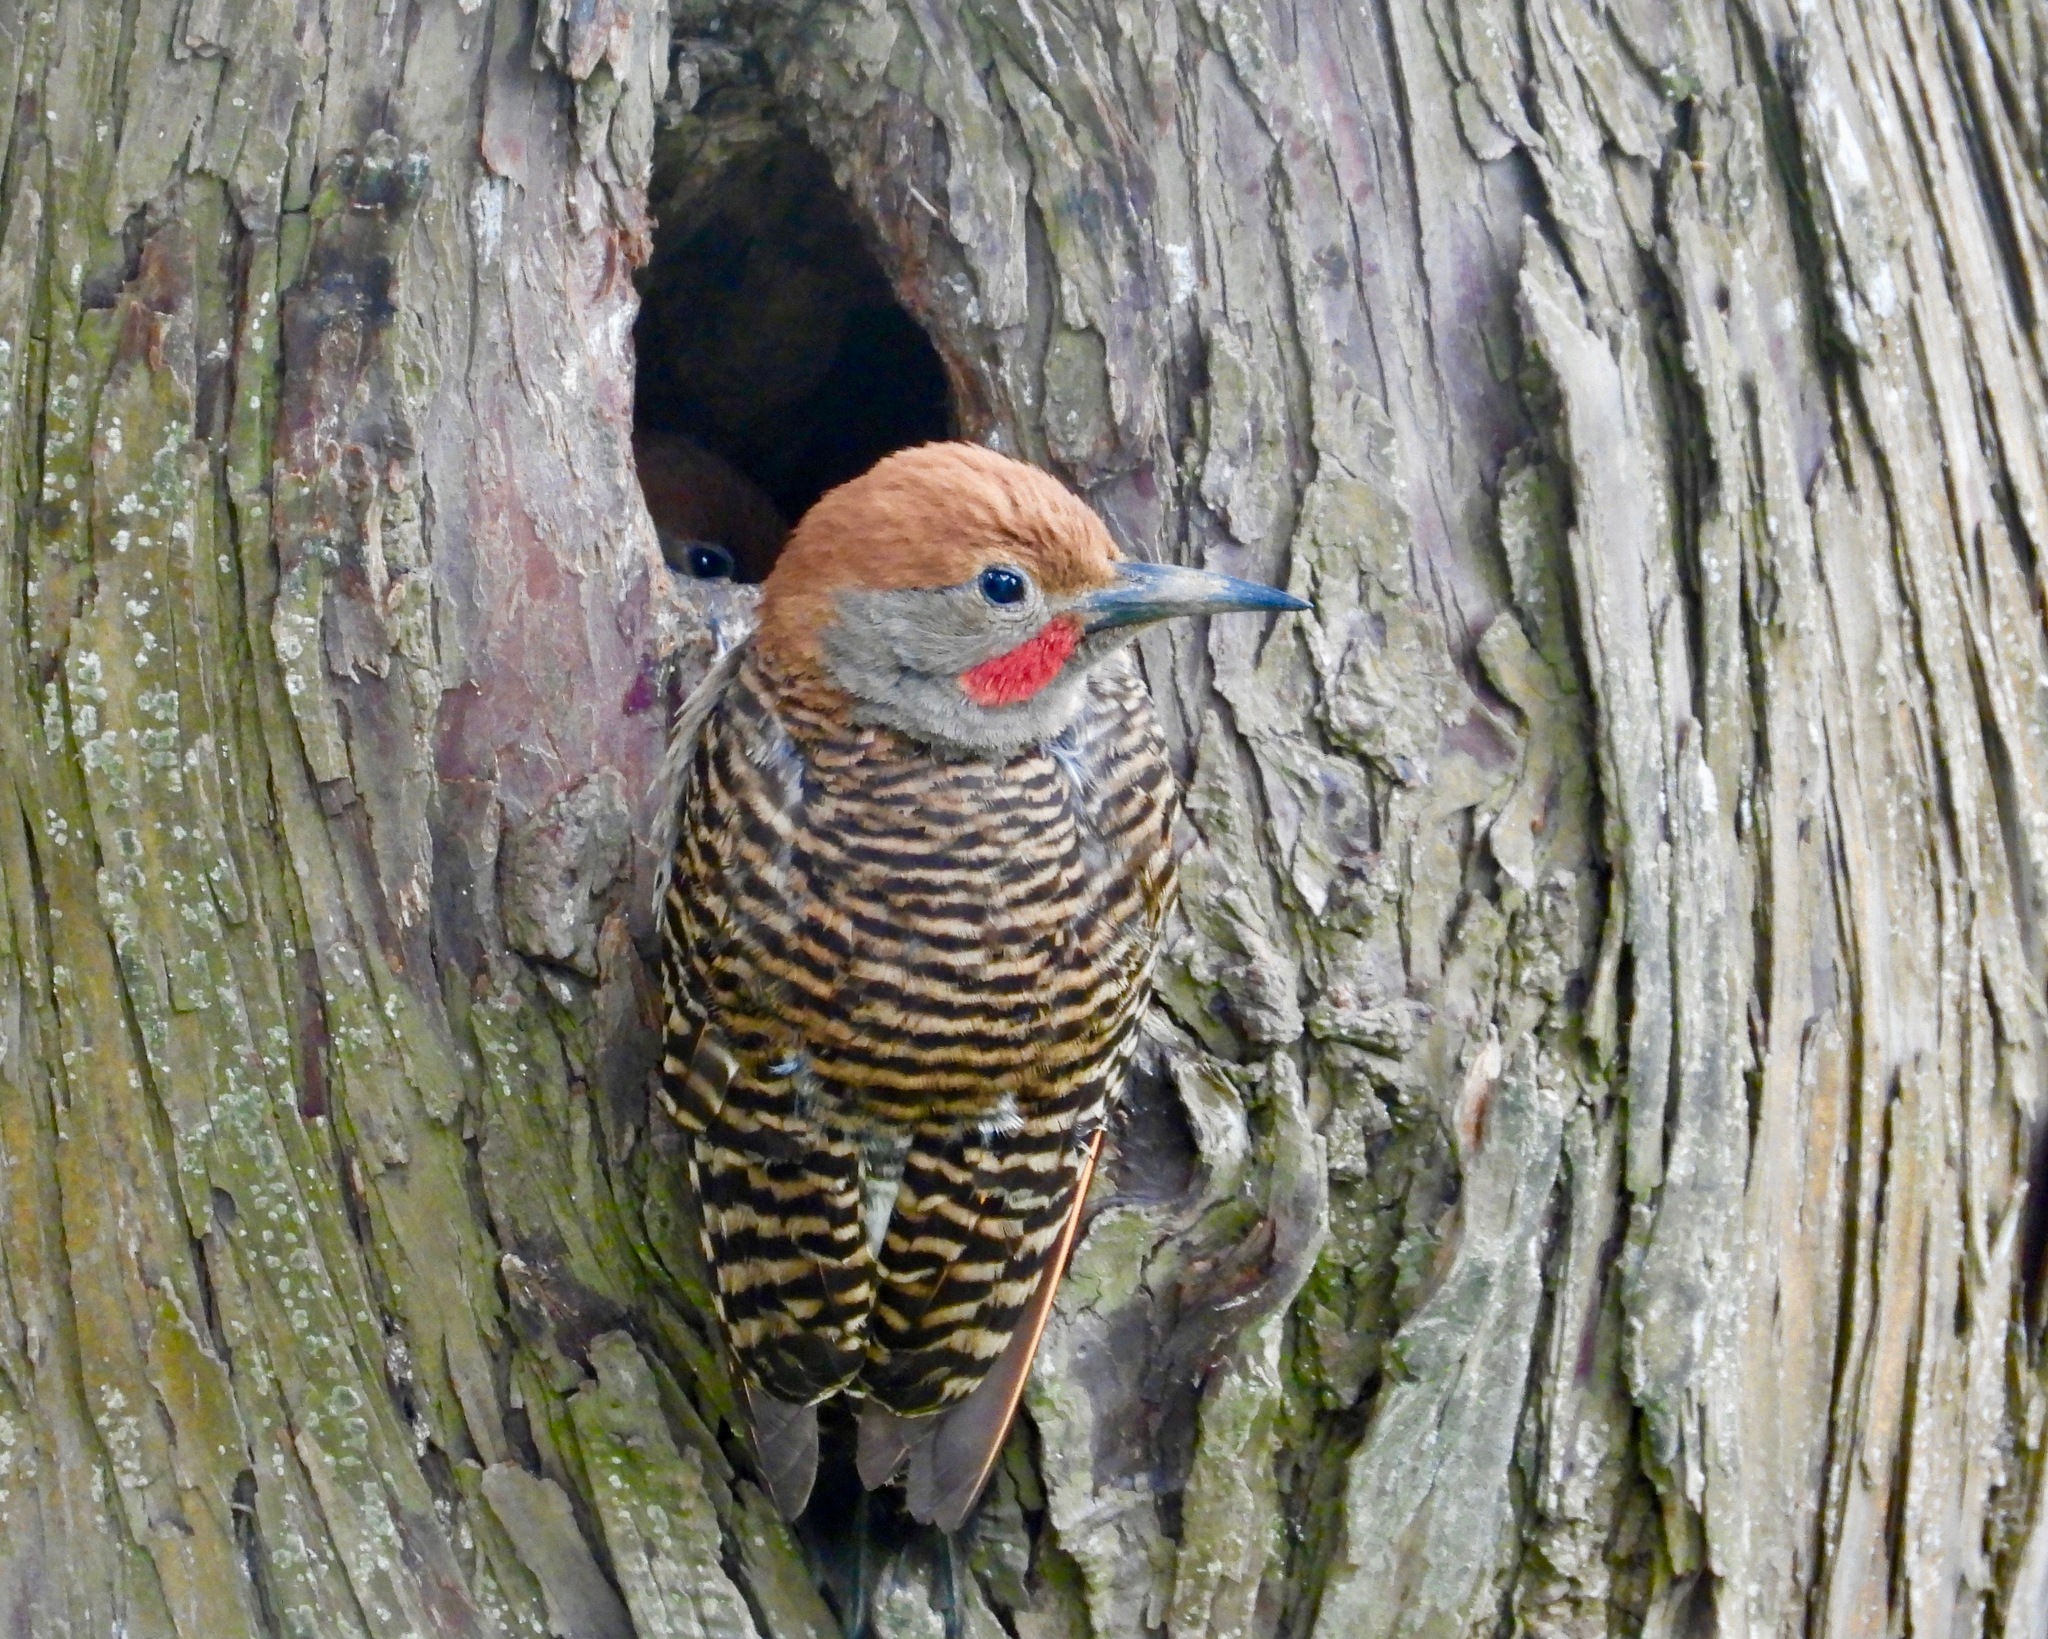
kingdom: Animalia
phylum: Chordata
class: Aves
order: Piciformes
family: Picidae
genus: Colaptes
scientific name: Colaptes auratus
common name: Northern flicker
